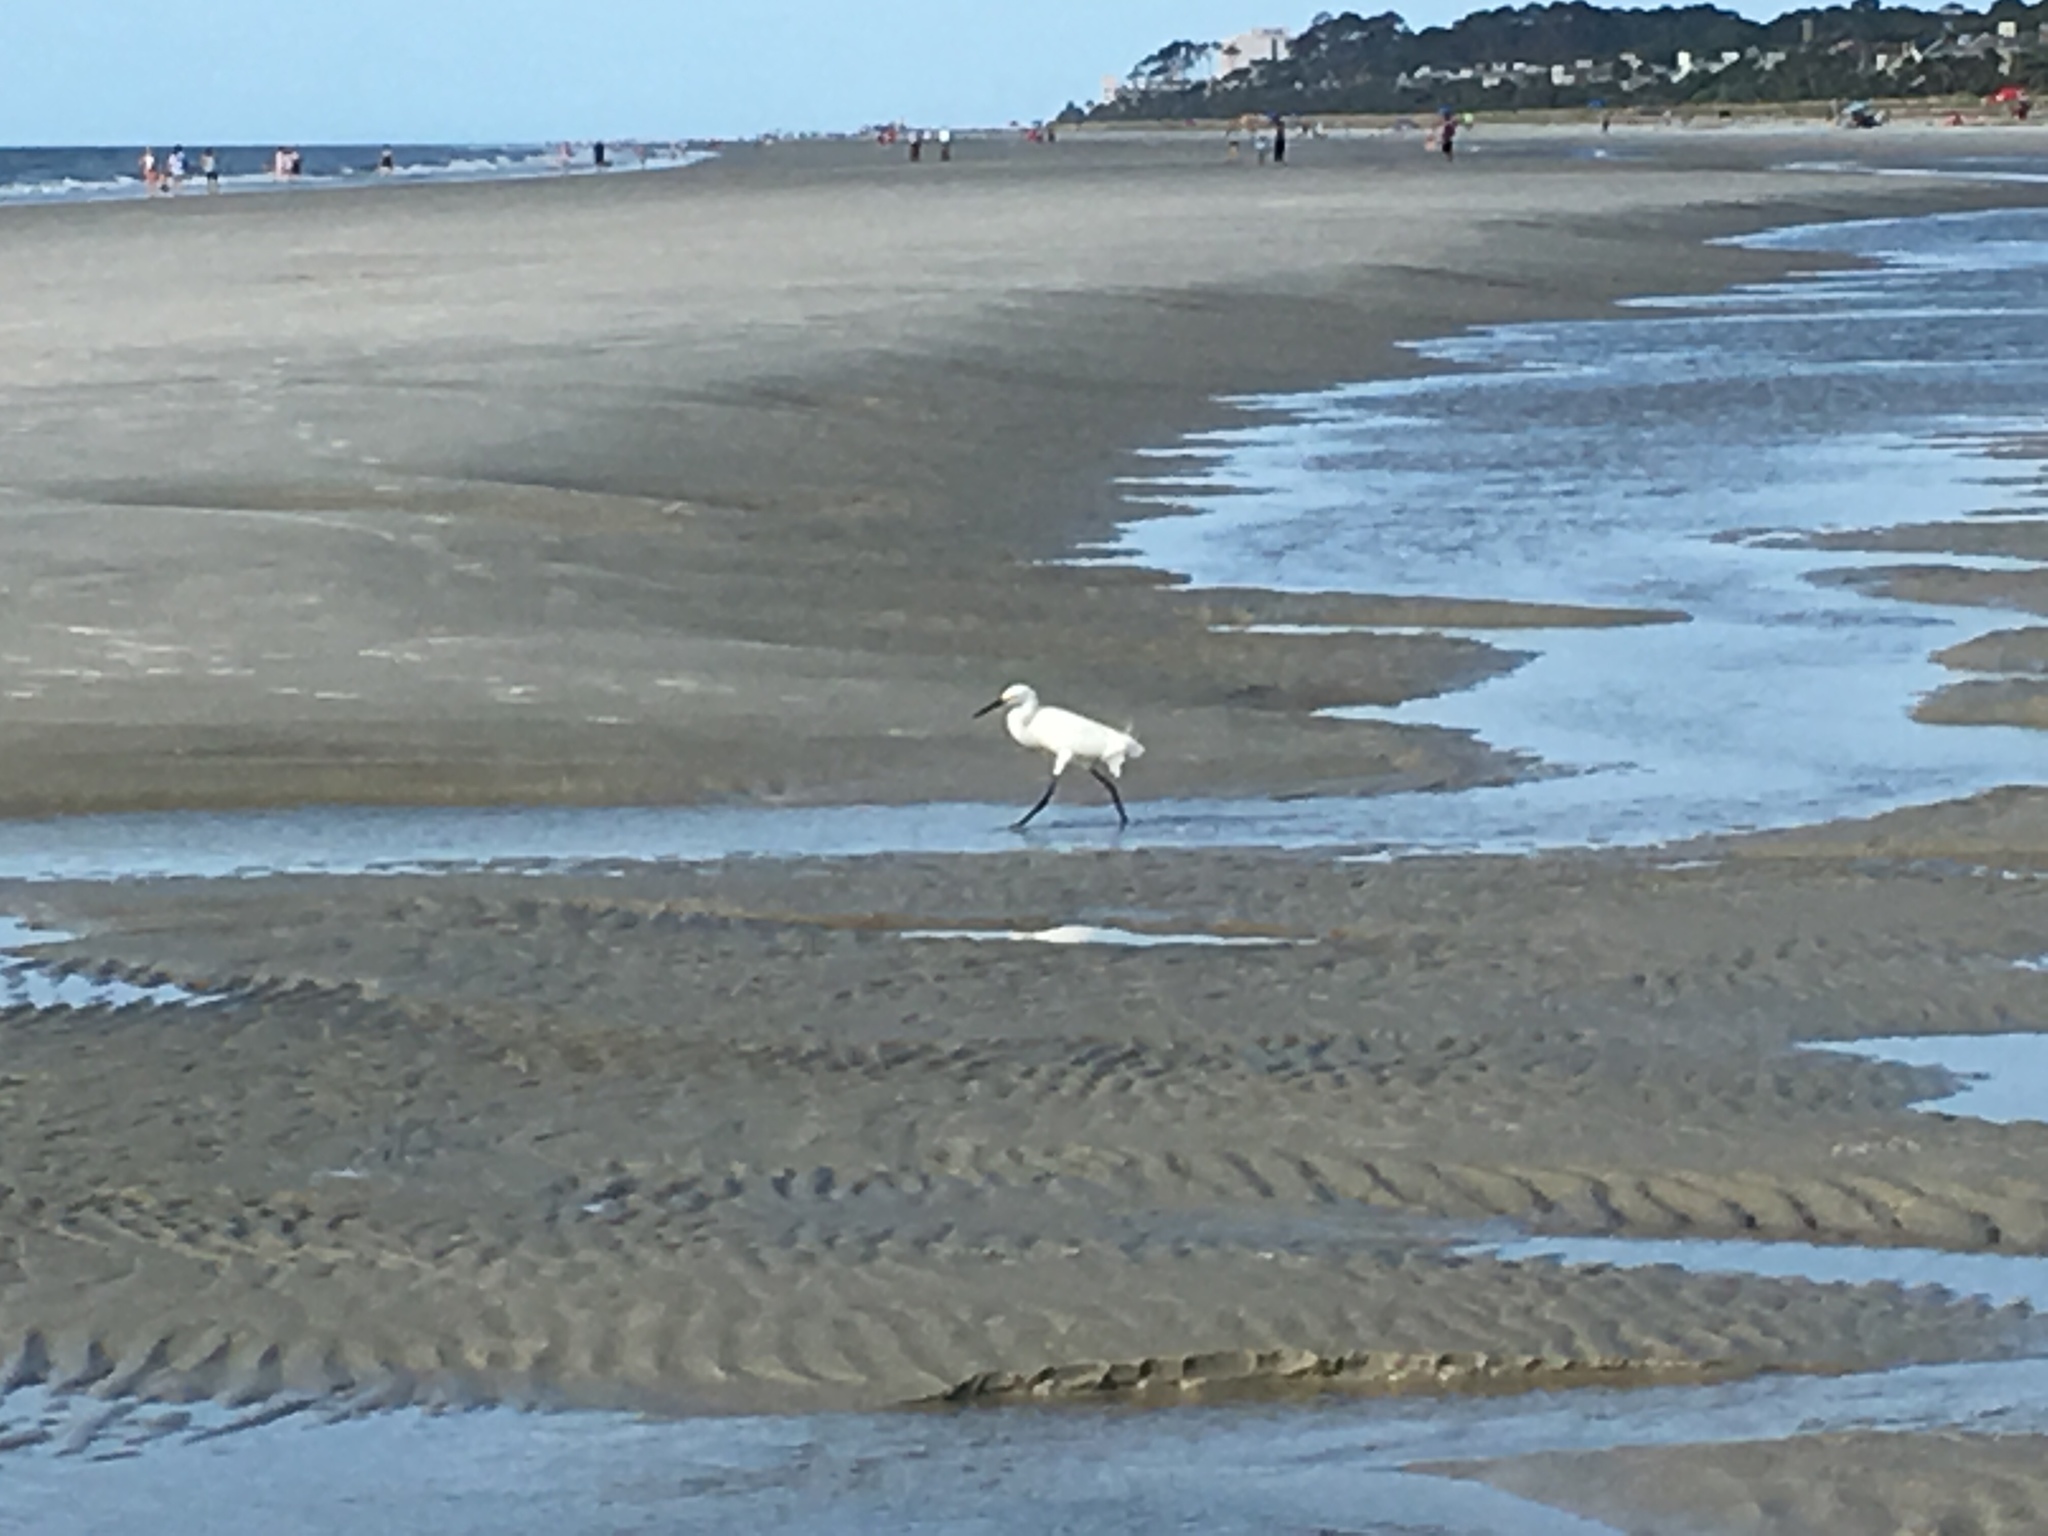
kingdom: Animalia
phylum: Chordata
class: Aves
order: Pelecaniformes
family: Ardeidae
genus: Egretta
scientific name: Egretta thula
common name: Snowy egret
